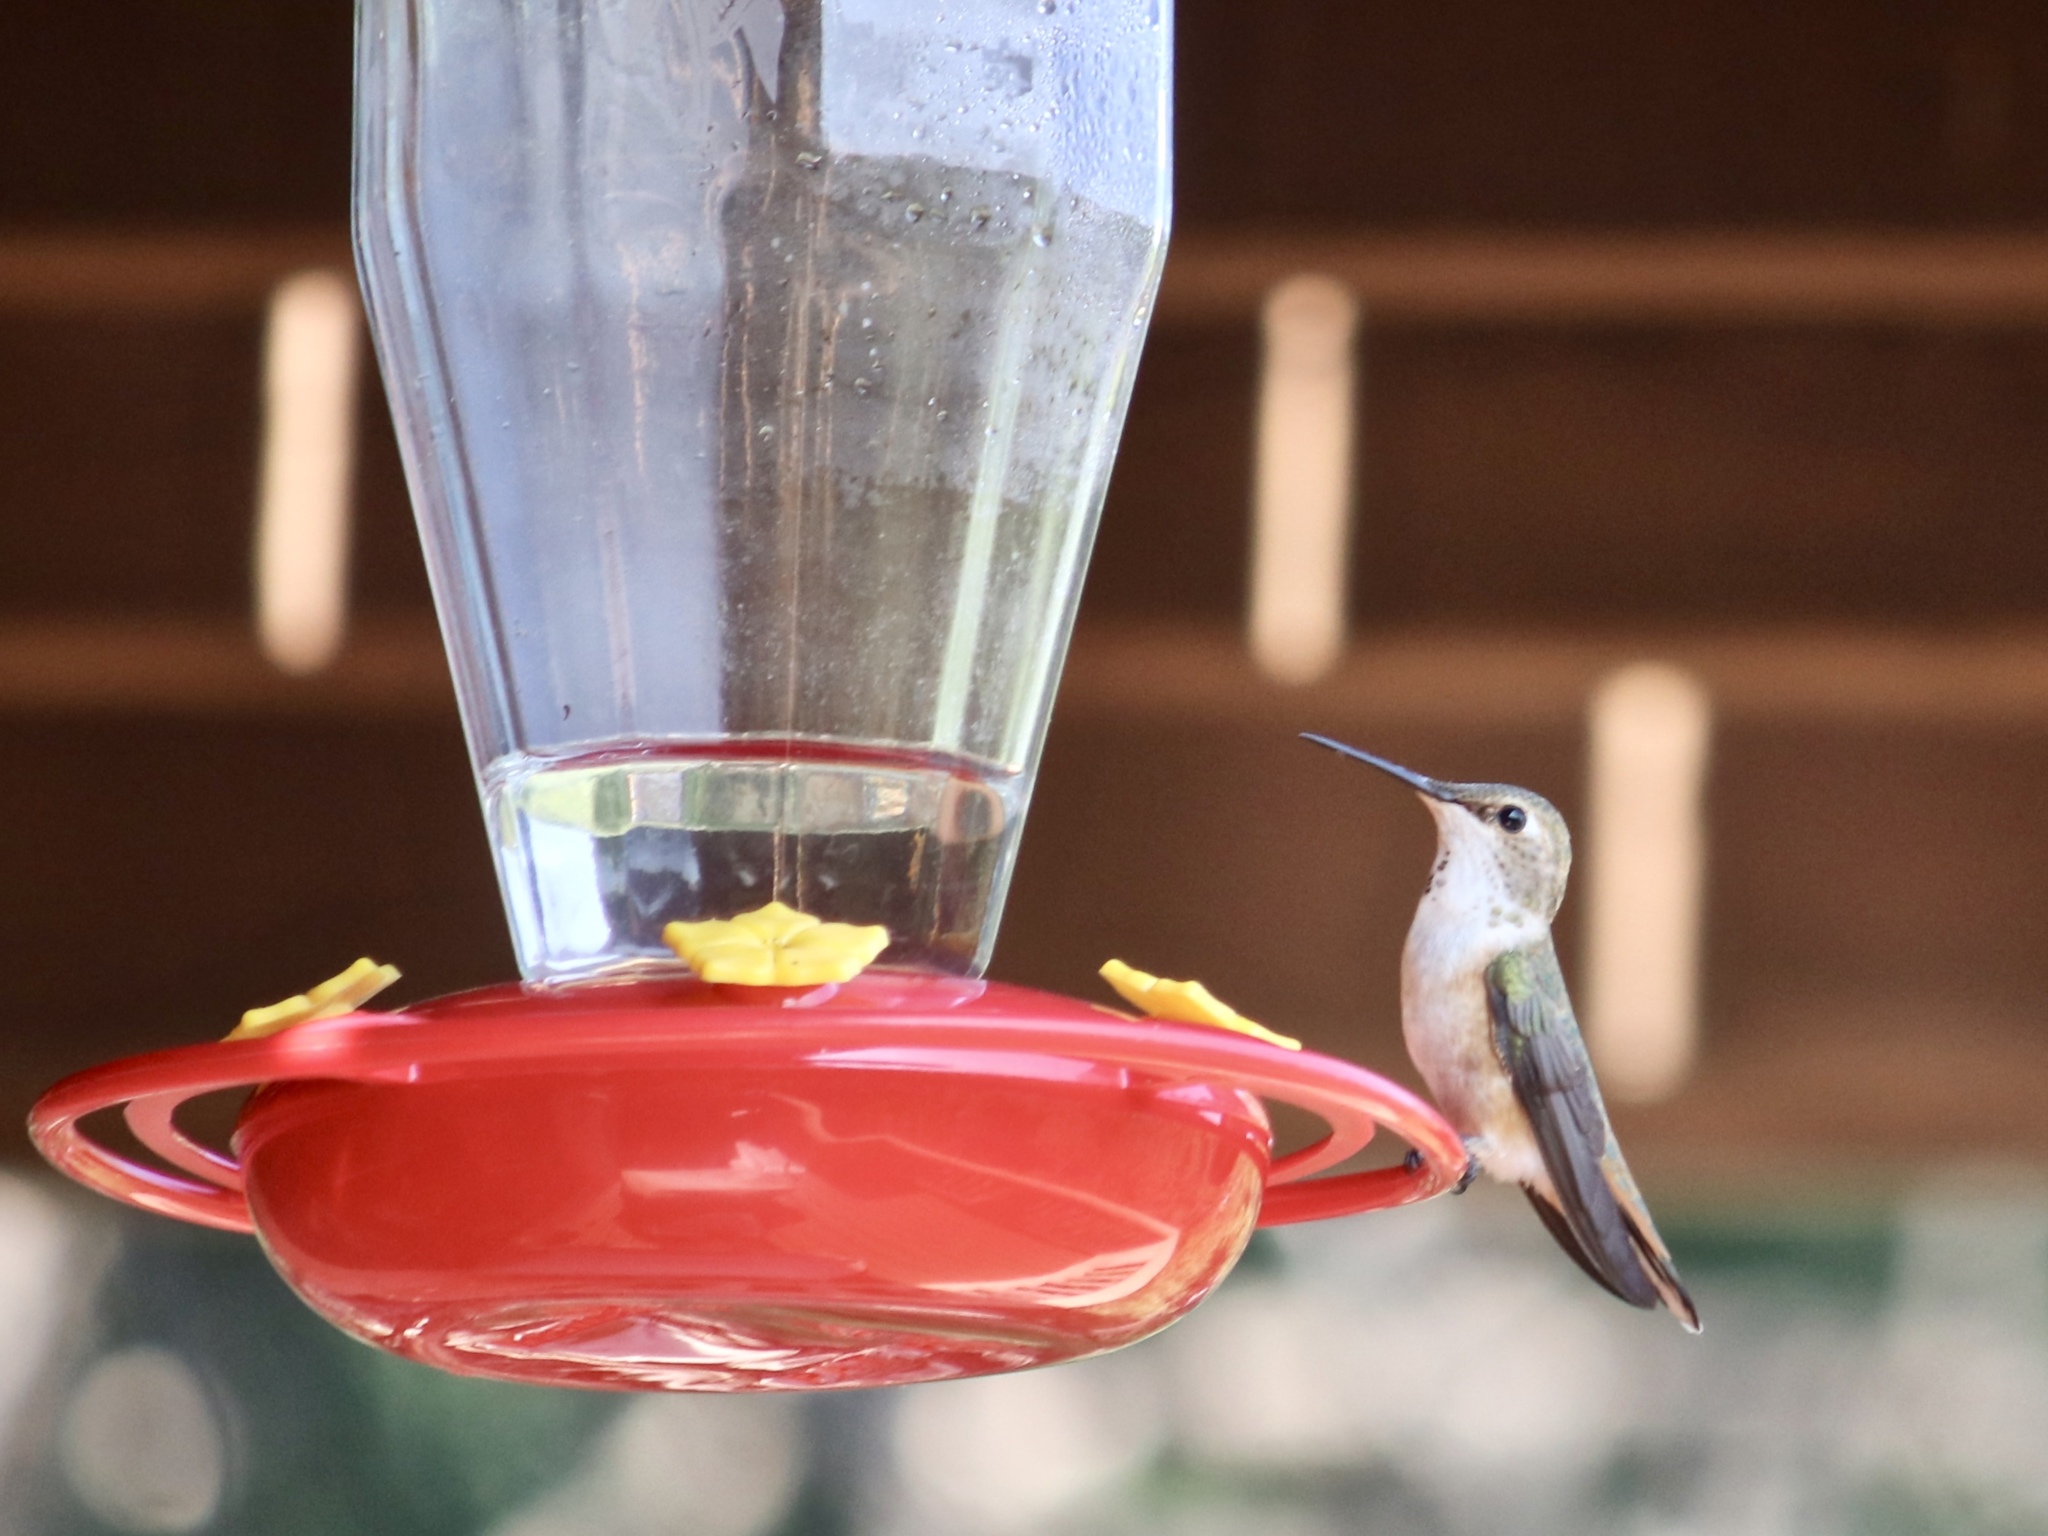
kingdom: Animalia
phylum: Chordata
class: Aves
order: Apodiformes
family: Trochilidae
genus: Selasphorus
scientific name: Selasphorus rufus
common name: Rufous hummingbird
